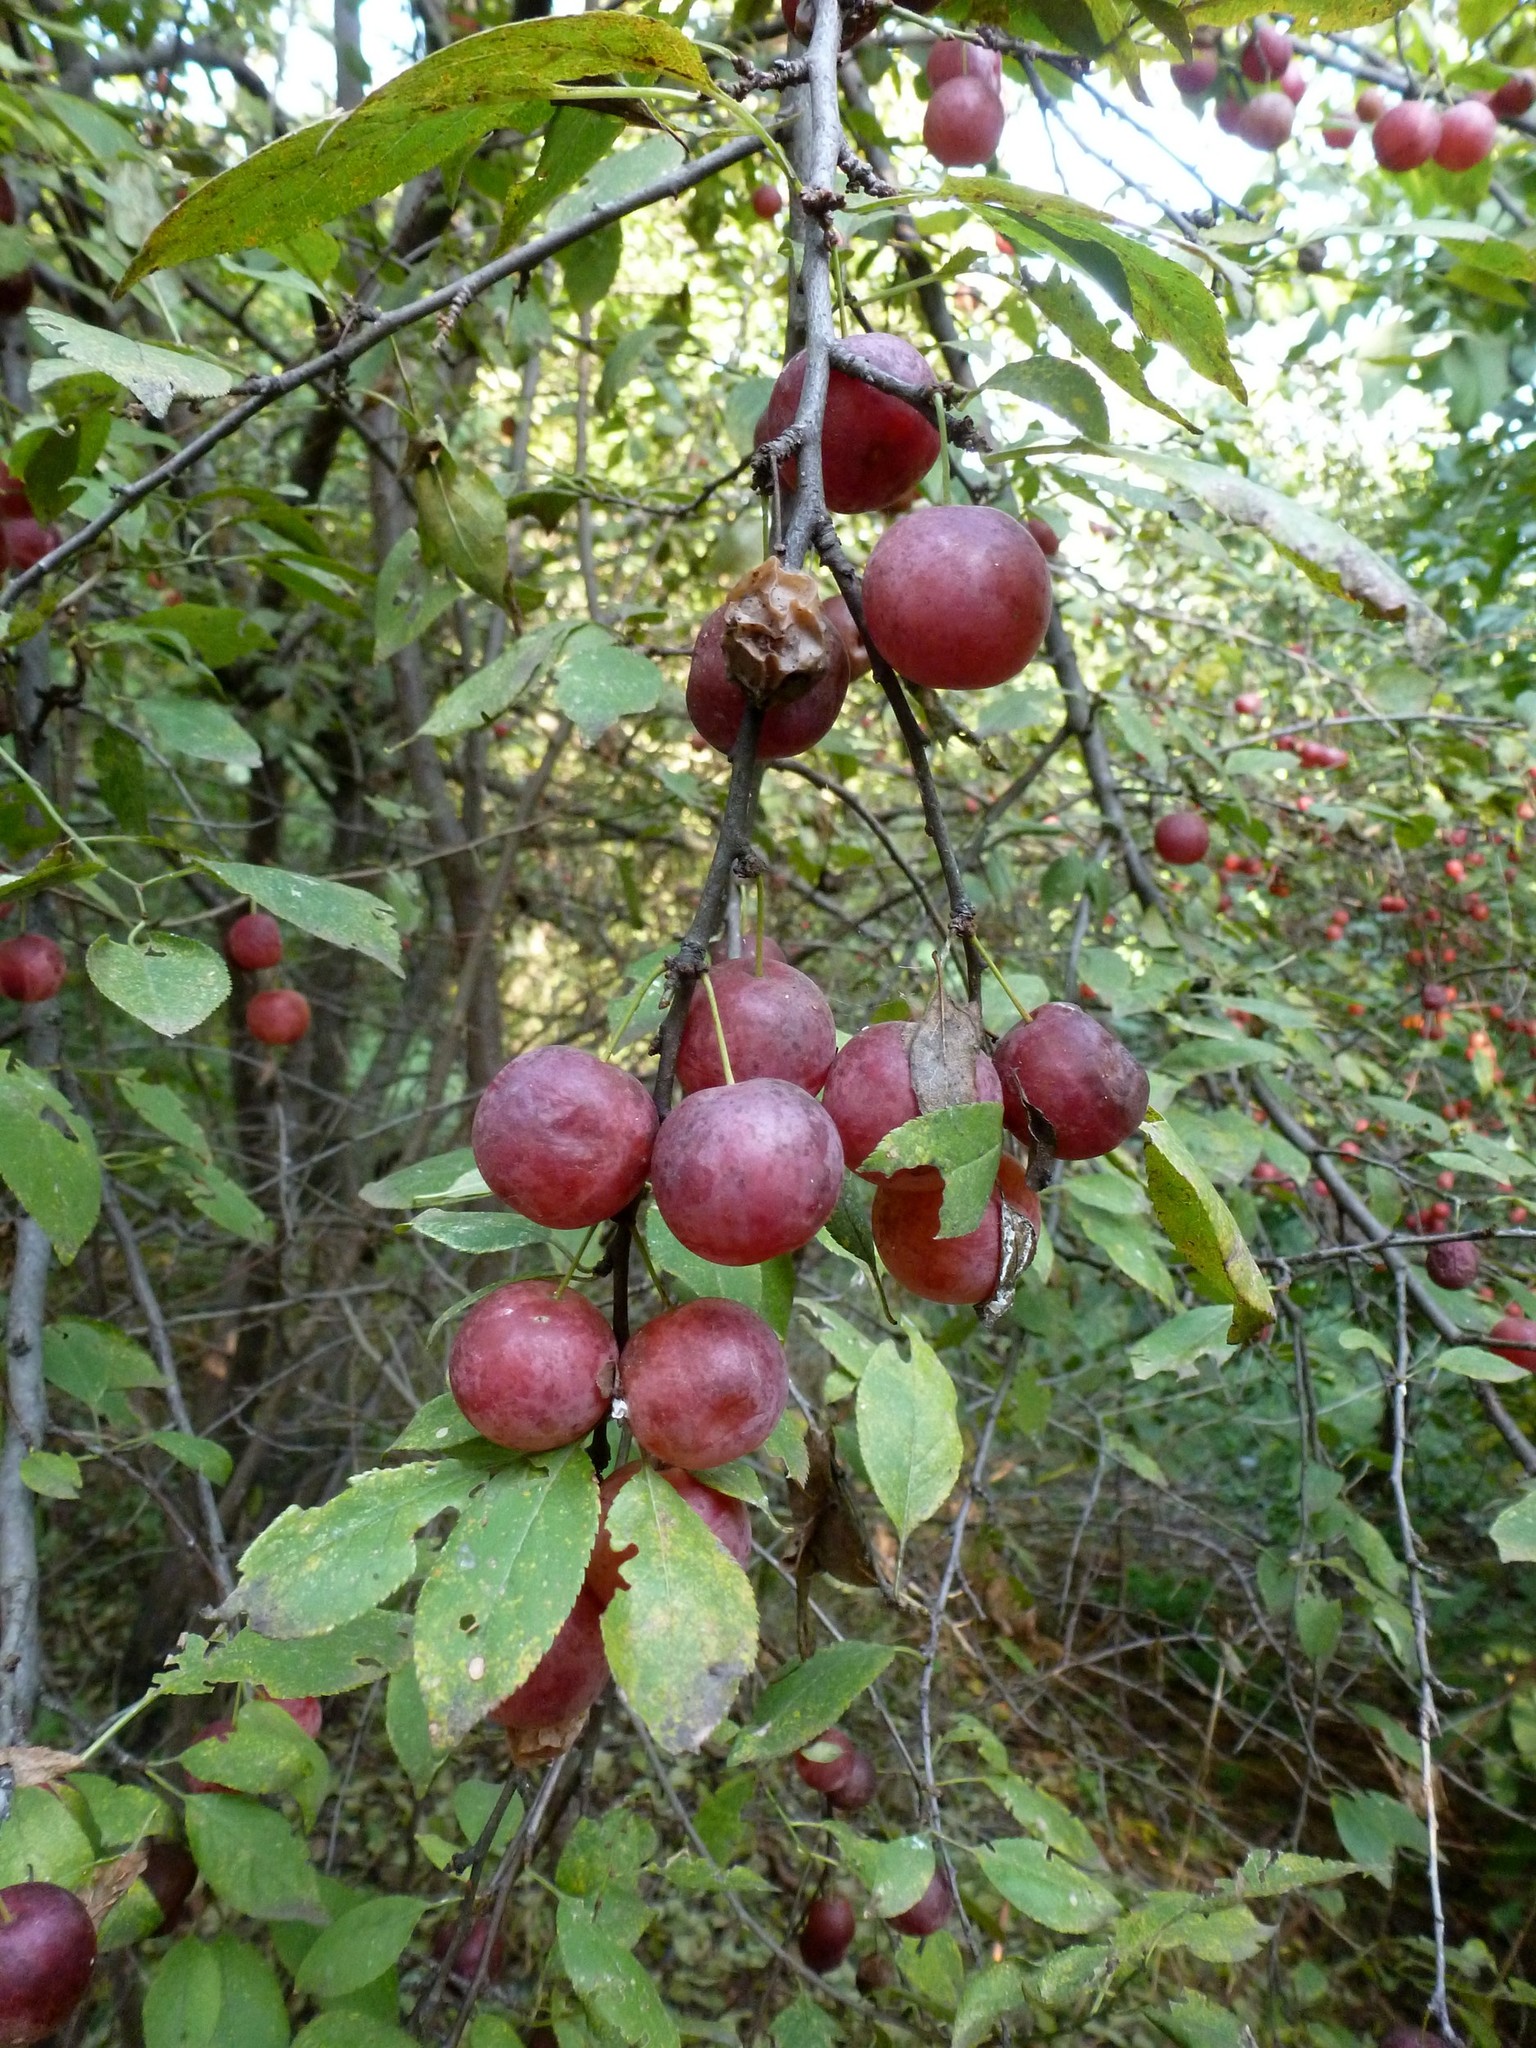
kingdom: Plantae
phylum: Tracheophyta
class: Magnoliopsida
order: Rosales
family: Rosaceae
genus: Prunus
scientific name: Prunus cerasifera
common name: Cherry plum
